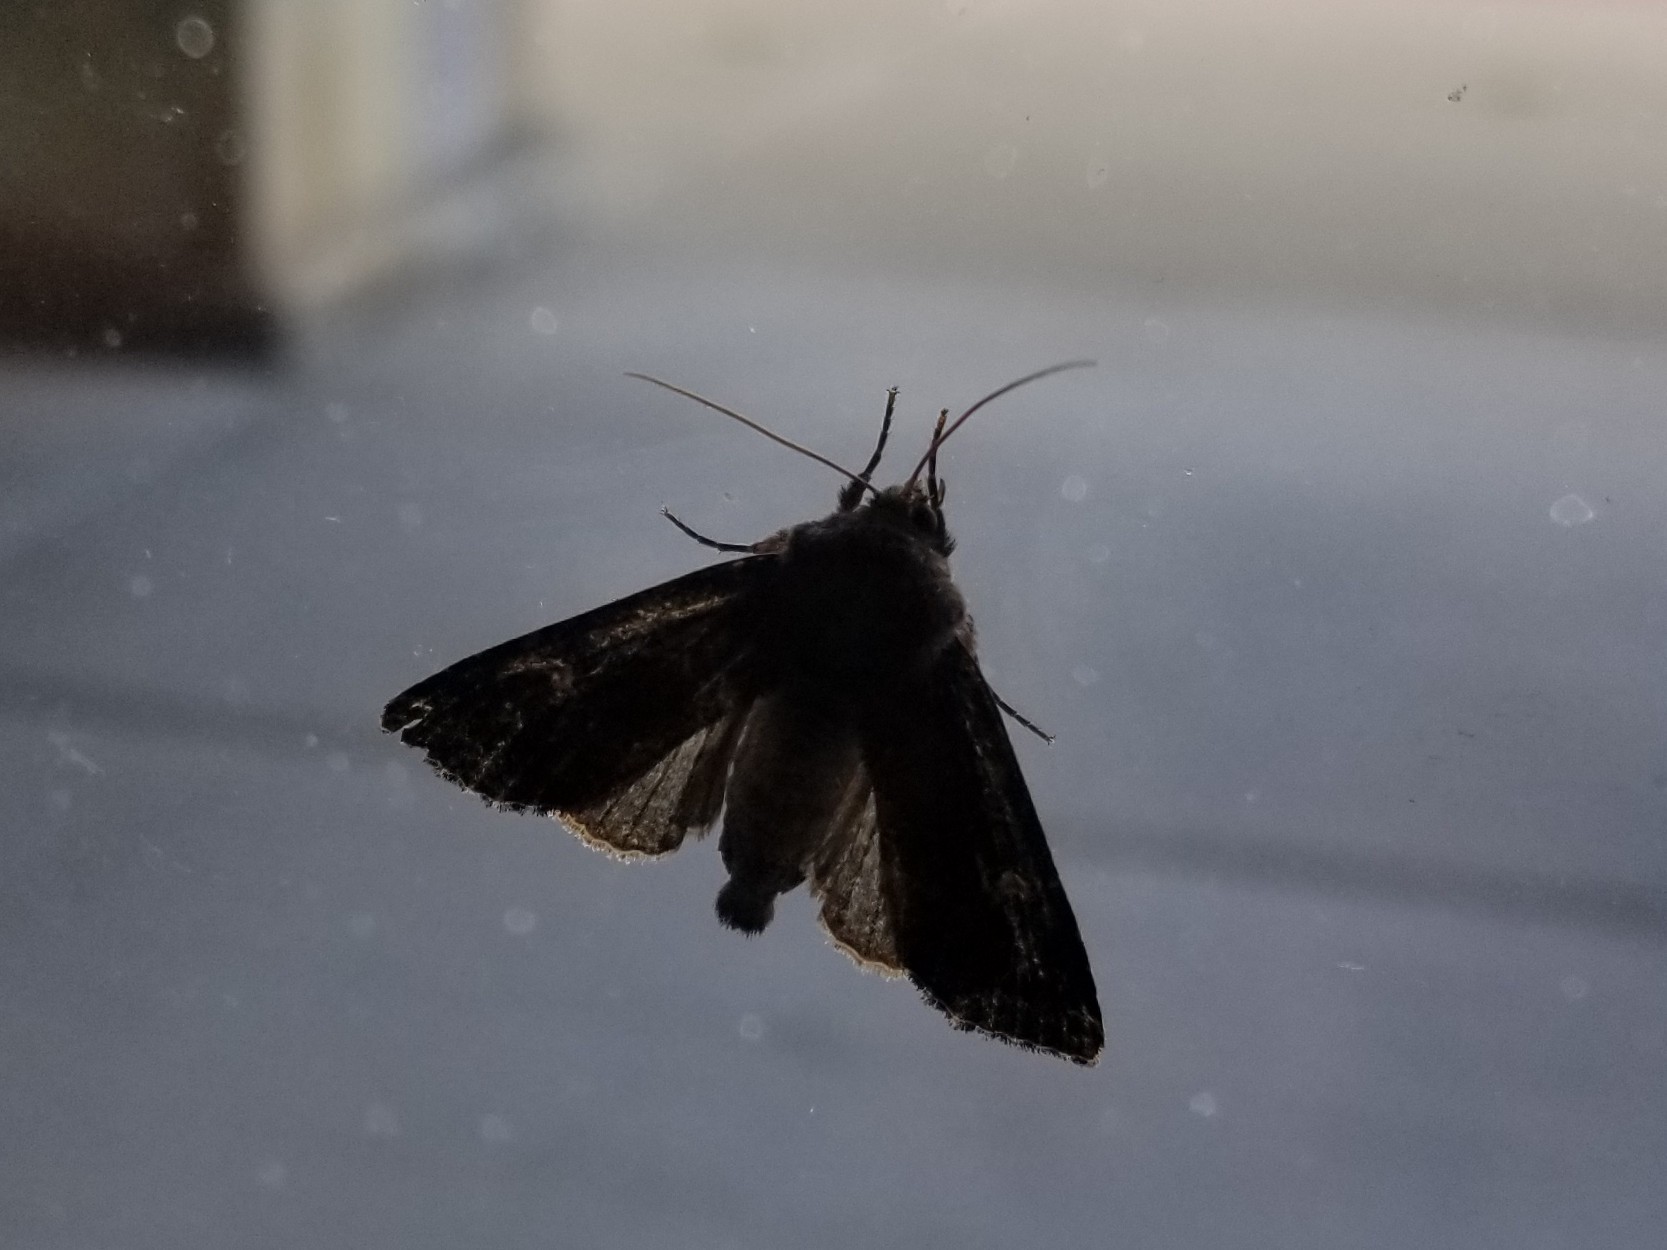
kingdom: Animalia
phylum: Arthropoda
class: Insecta
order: Lepidoptera
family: Noctuidae
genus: Apamea
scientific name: Apamea cogitata
